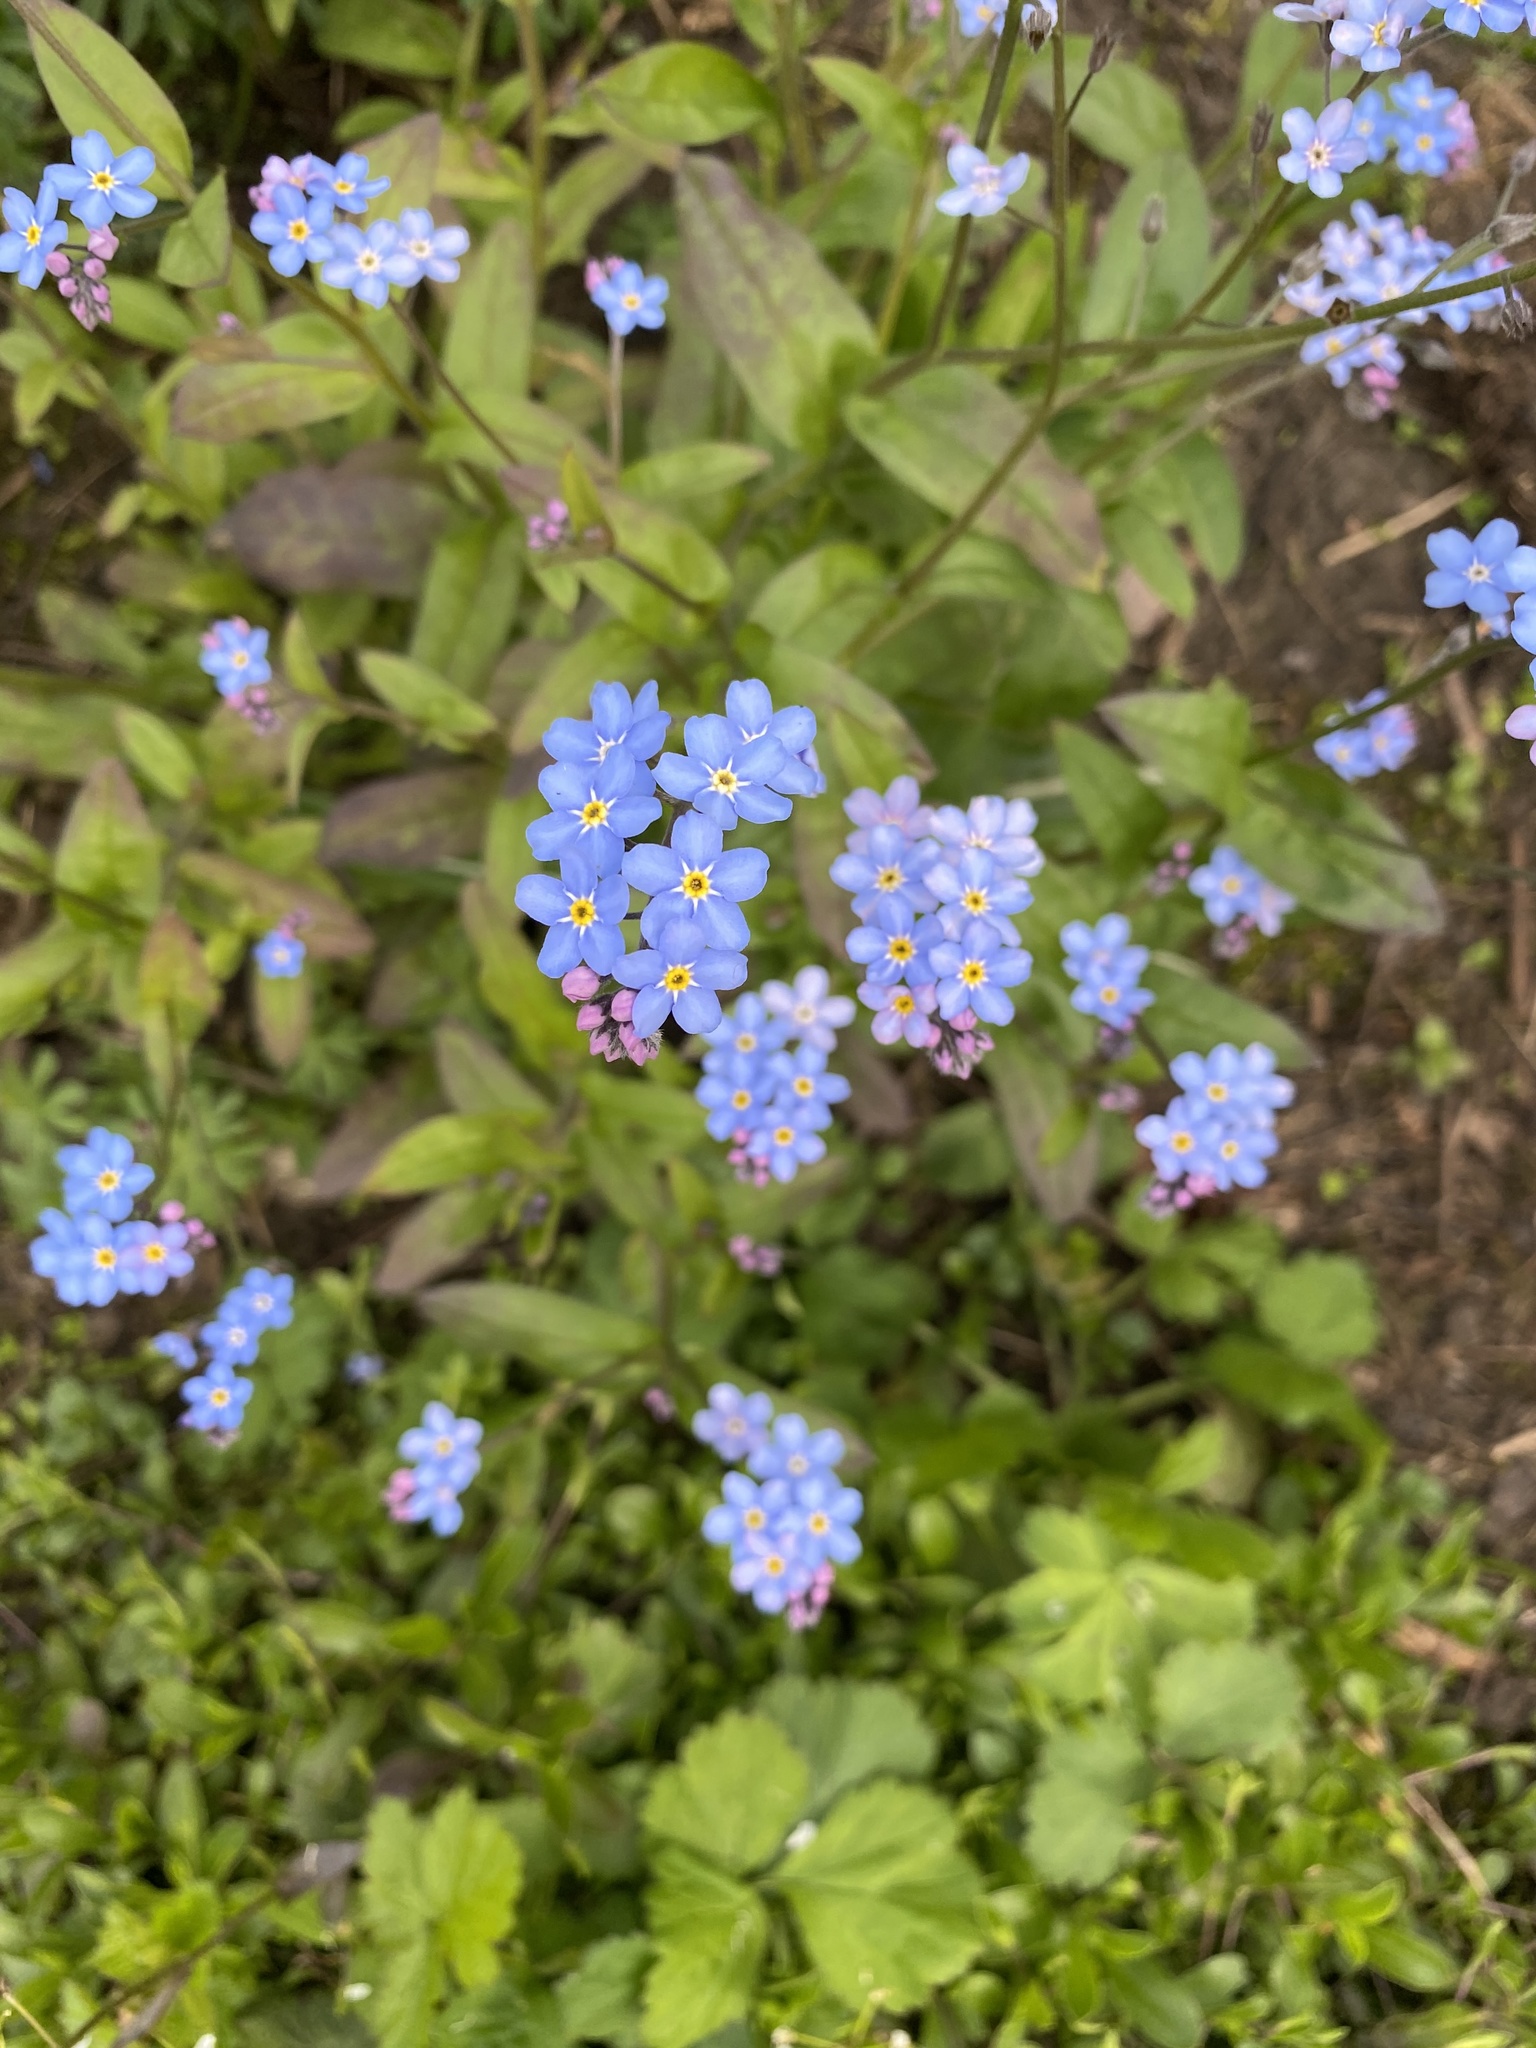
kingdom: Plantae
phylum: Tracheophyta
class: Magnoliopsida
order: Boraginales
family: Boraginaceae
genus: Myosotis
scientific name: Myosotis sylvatica
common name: Wood forget-me-not
